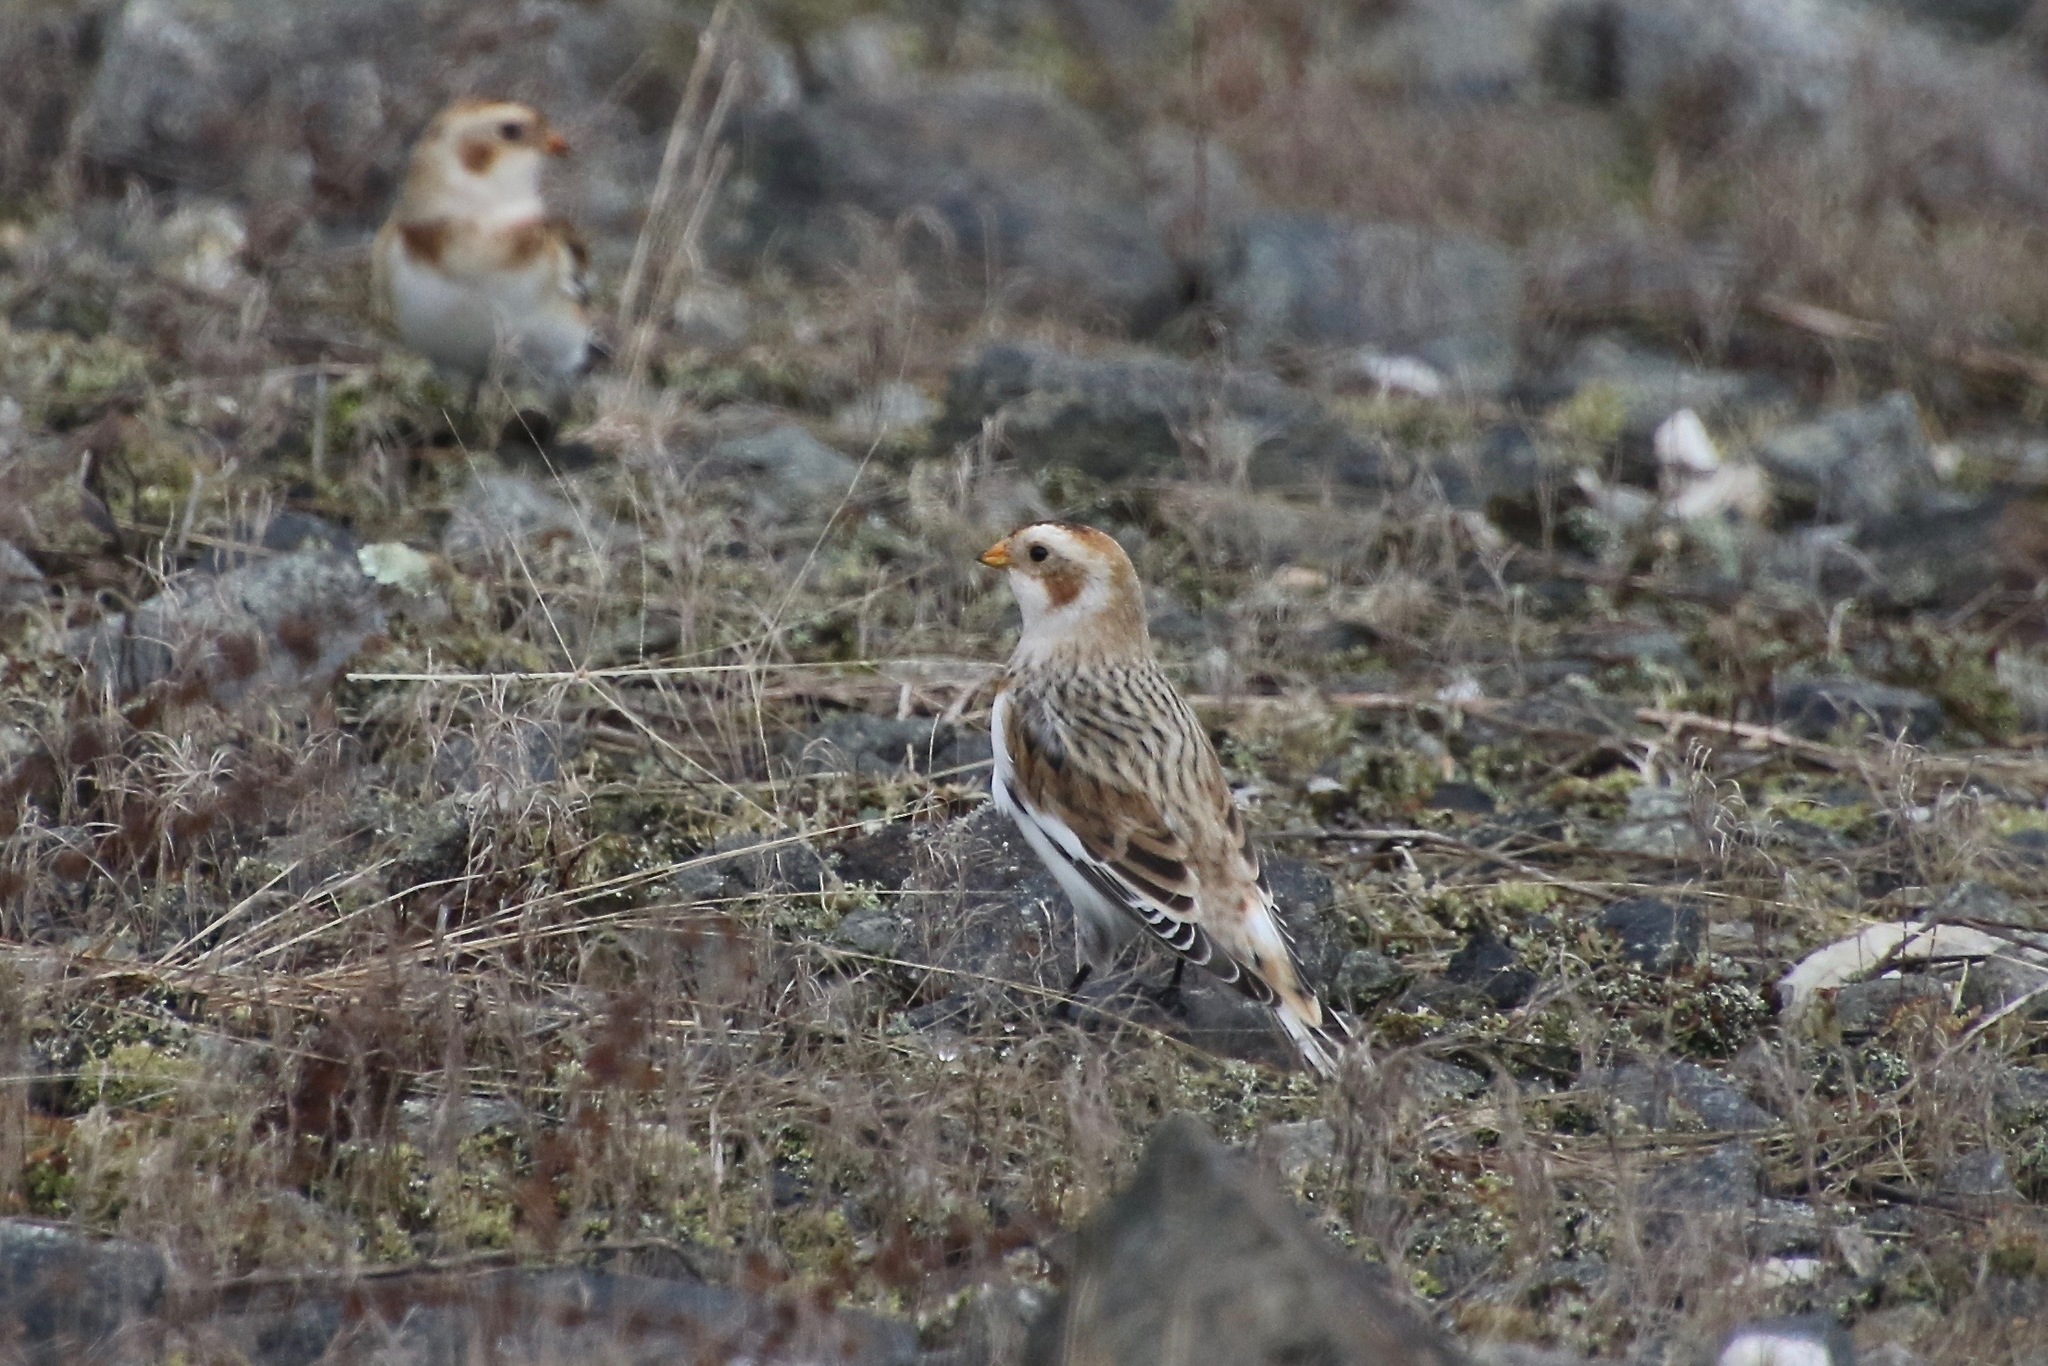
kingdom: Animalia
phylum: Chordata
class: Aves
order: Passeriformes
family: Calcariidae
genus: Plectrophenax
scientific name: Plectrophenax nivalis
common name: Snow bunting
